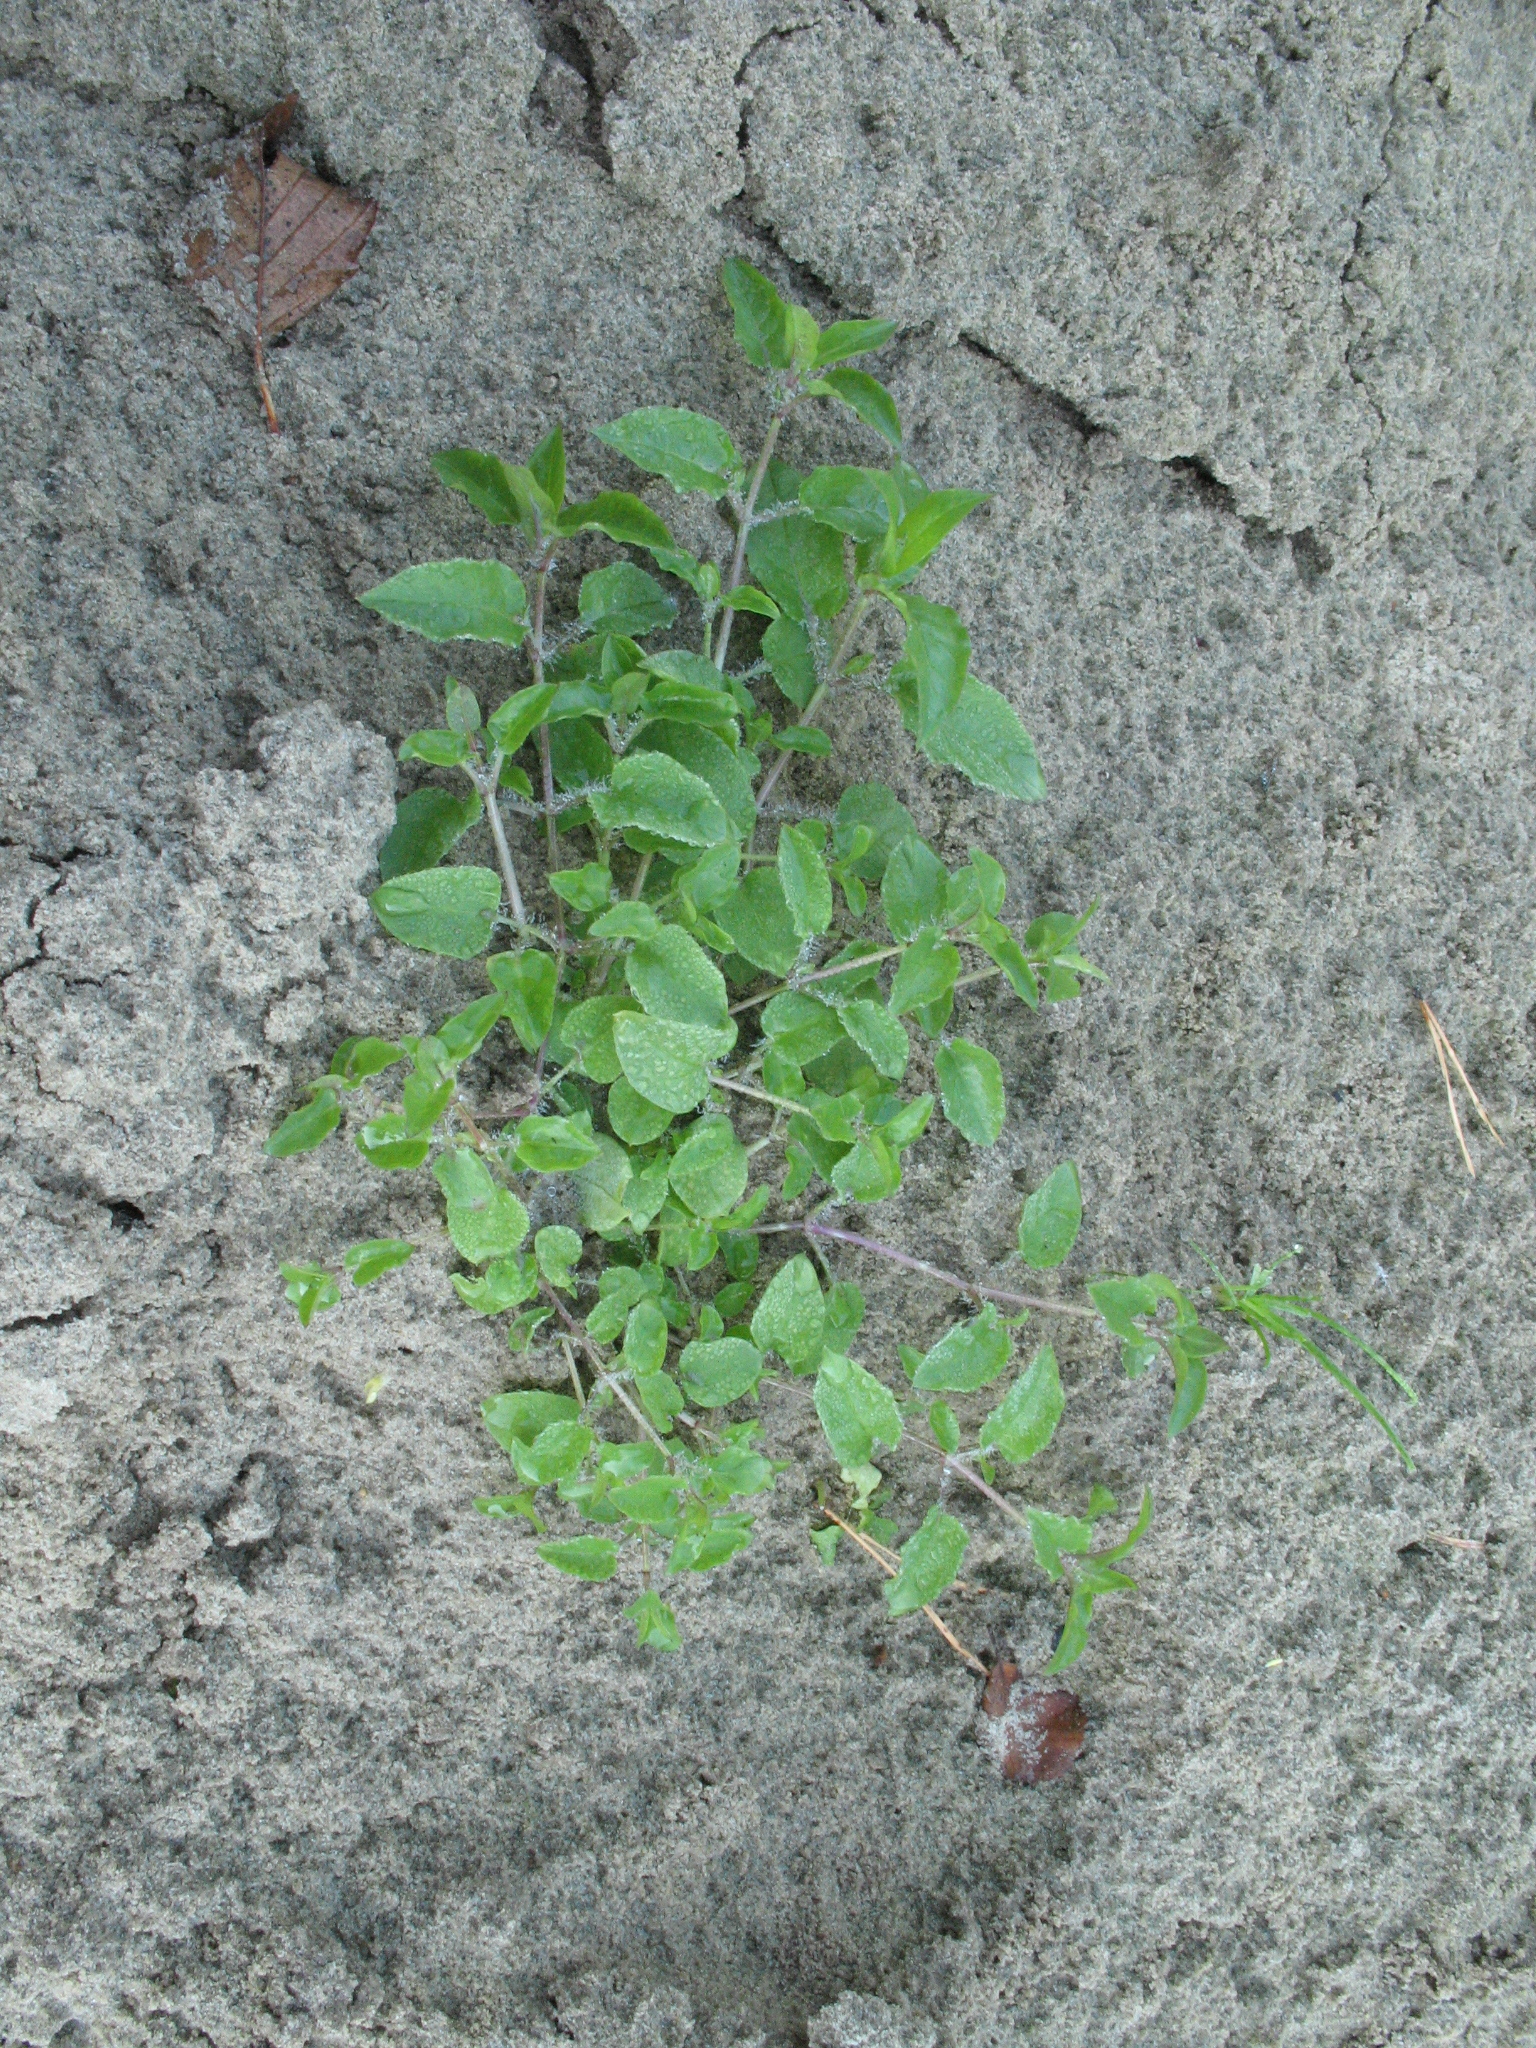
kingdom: Plantae
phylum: Tracheophyta
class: Magnoliopsida
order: Caryophyllales
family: Caryophyllaceae
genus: Stellaria
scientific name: Stellaria aquatica
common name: Water chickweed
